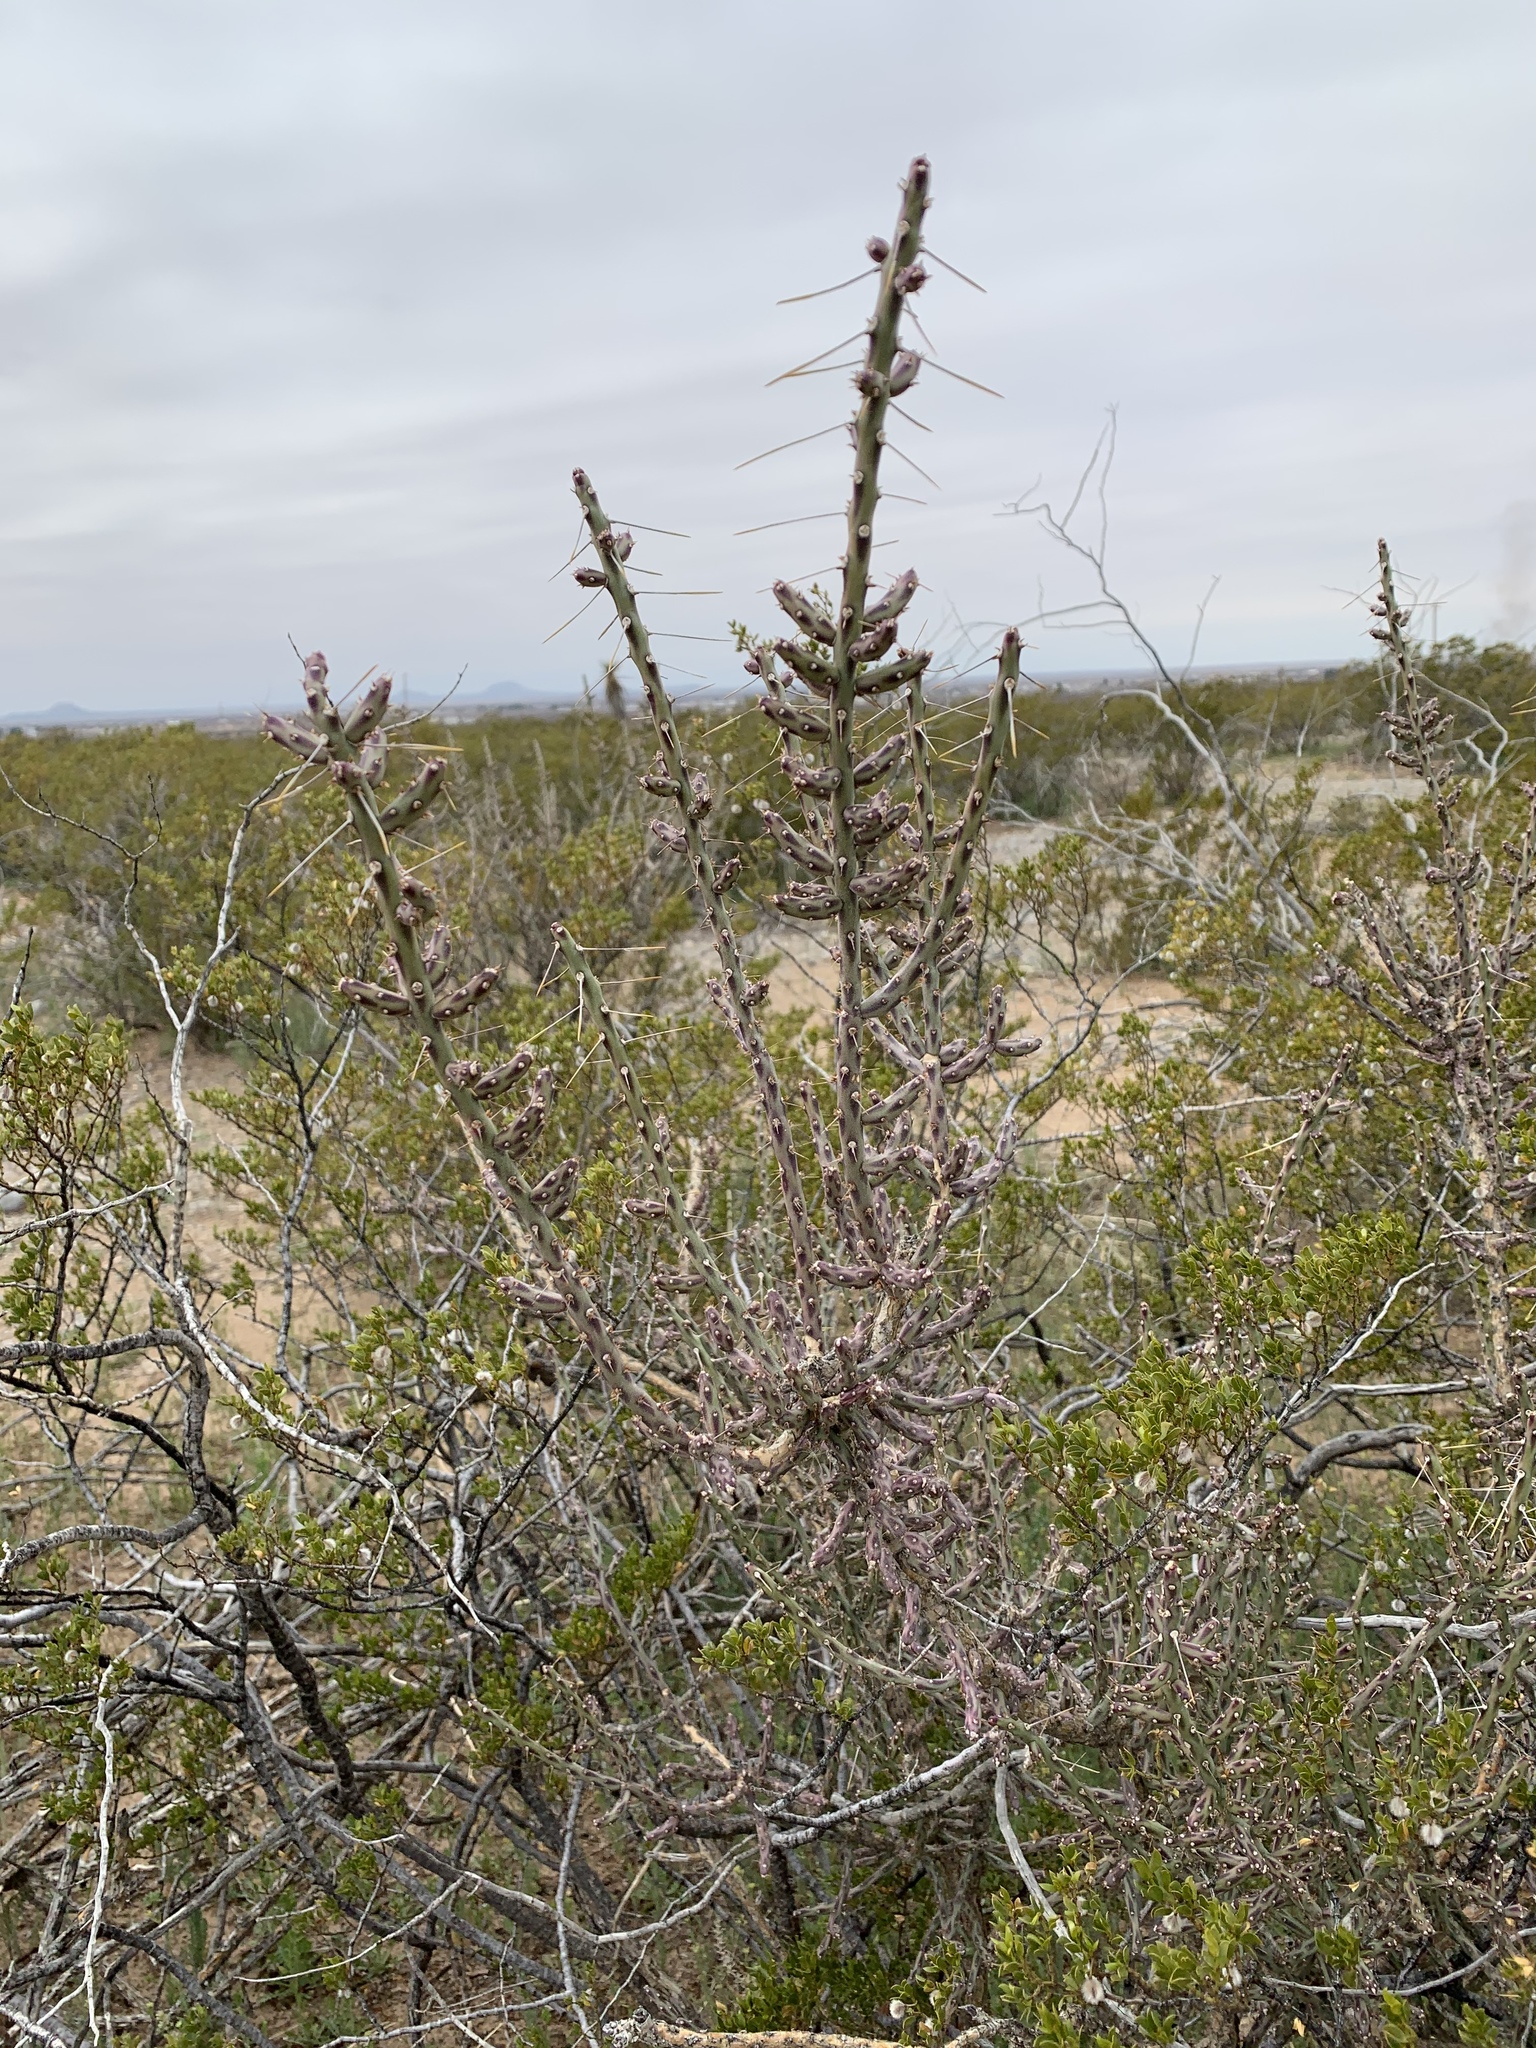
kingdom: Plantae
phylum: Tracheophyta
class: Magnoliopsida
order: Caryophyllales
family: Cactaceae
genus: Cylindropuntia
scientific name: Cylindropuntia leptocaulis
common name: Christmas cactus
